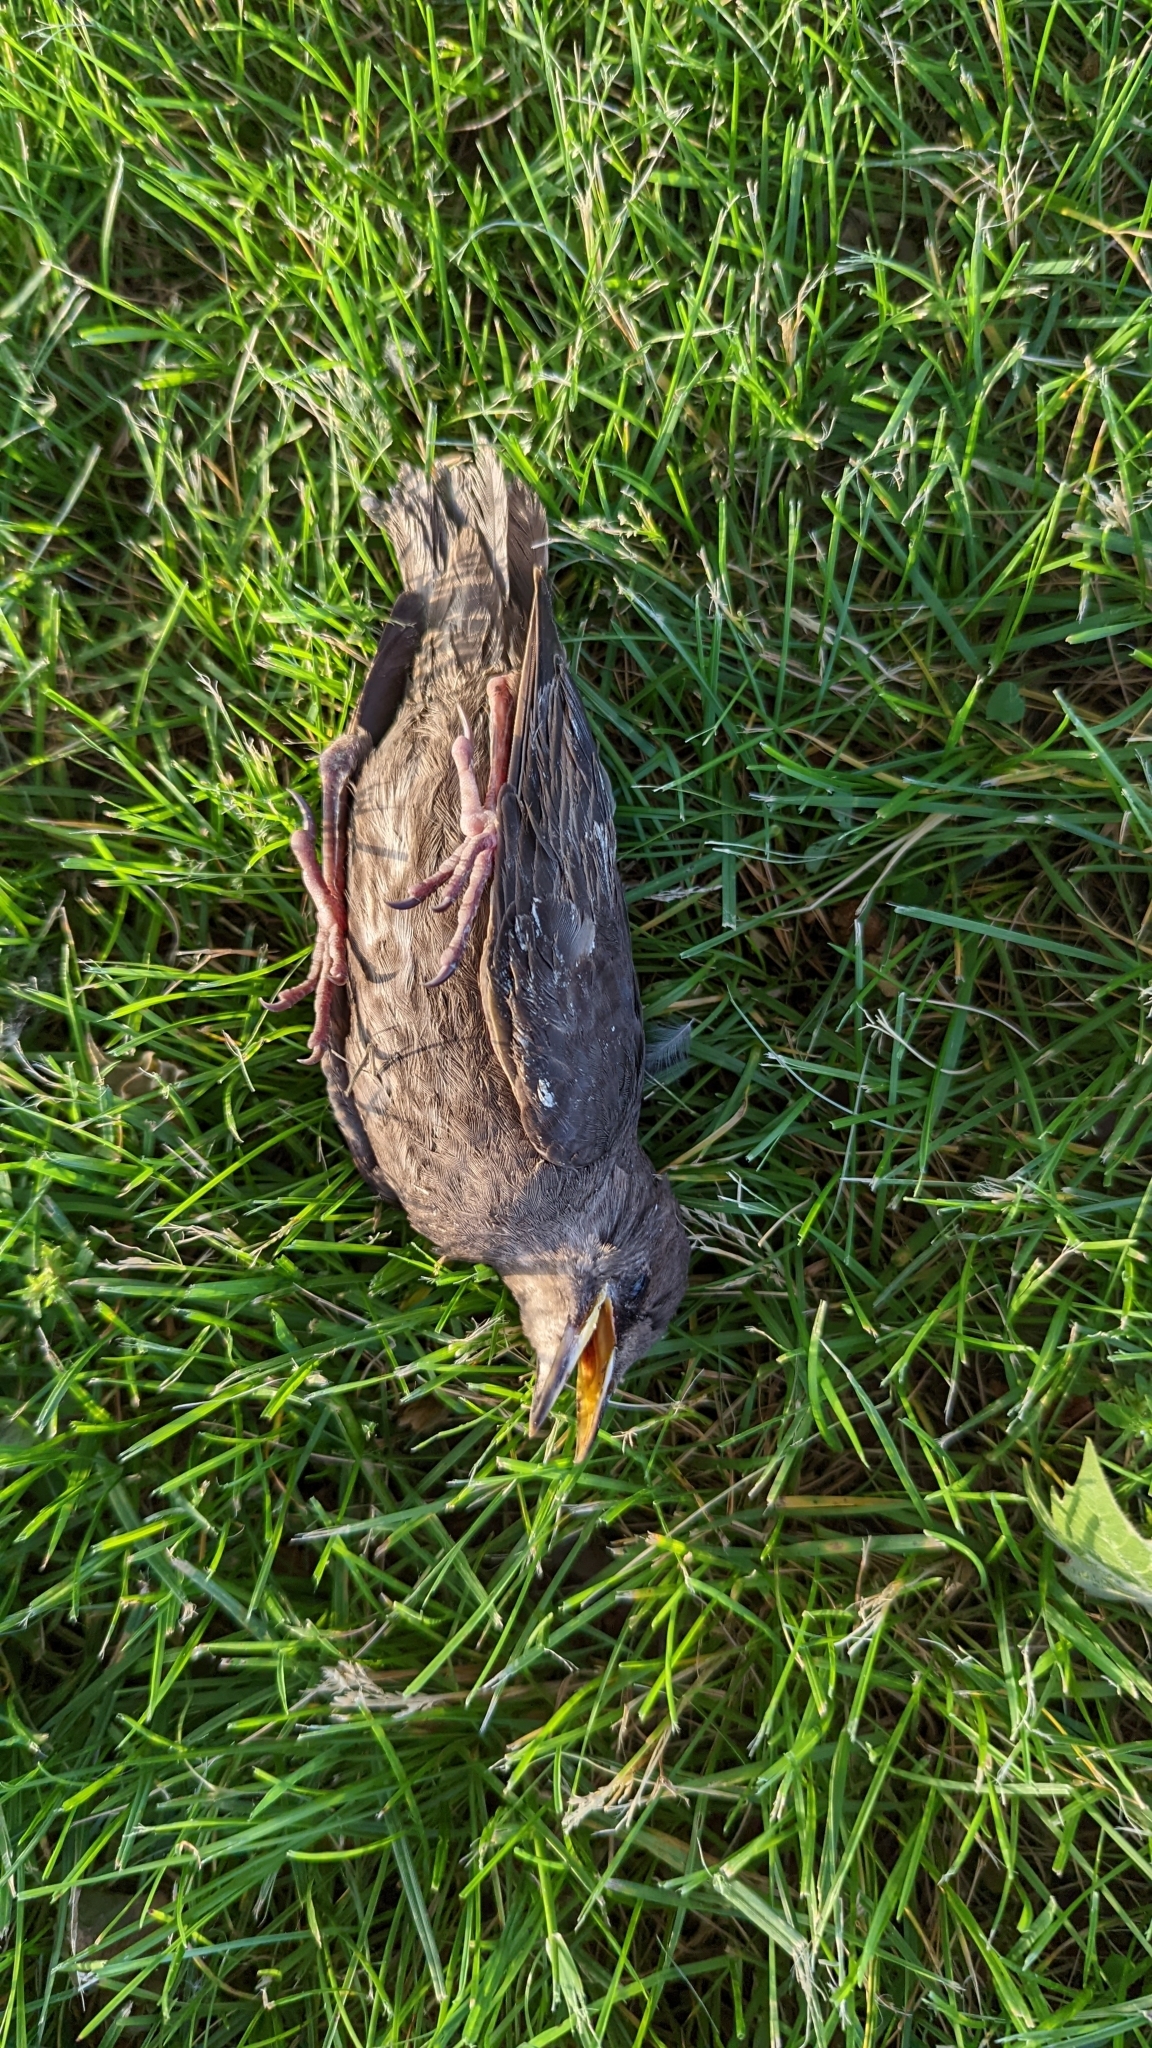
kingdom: Animalia
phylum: Chordata
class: Aves
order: Passeriformes
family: Sturnidae
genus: Sturnus
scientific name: Sturnus vulgaris
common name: Common starling
